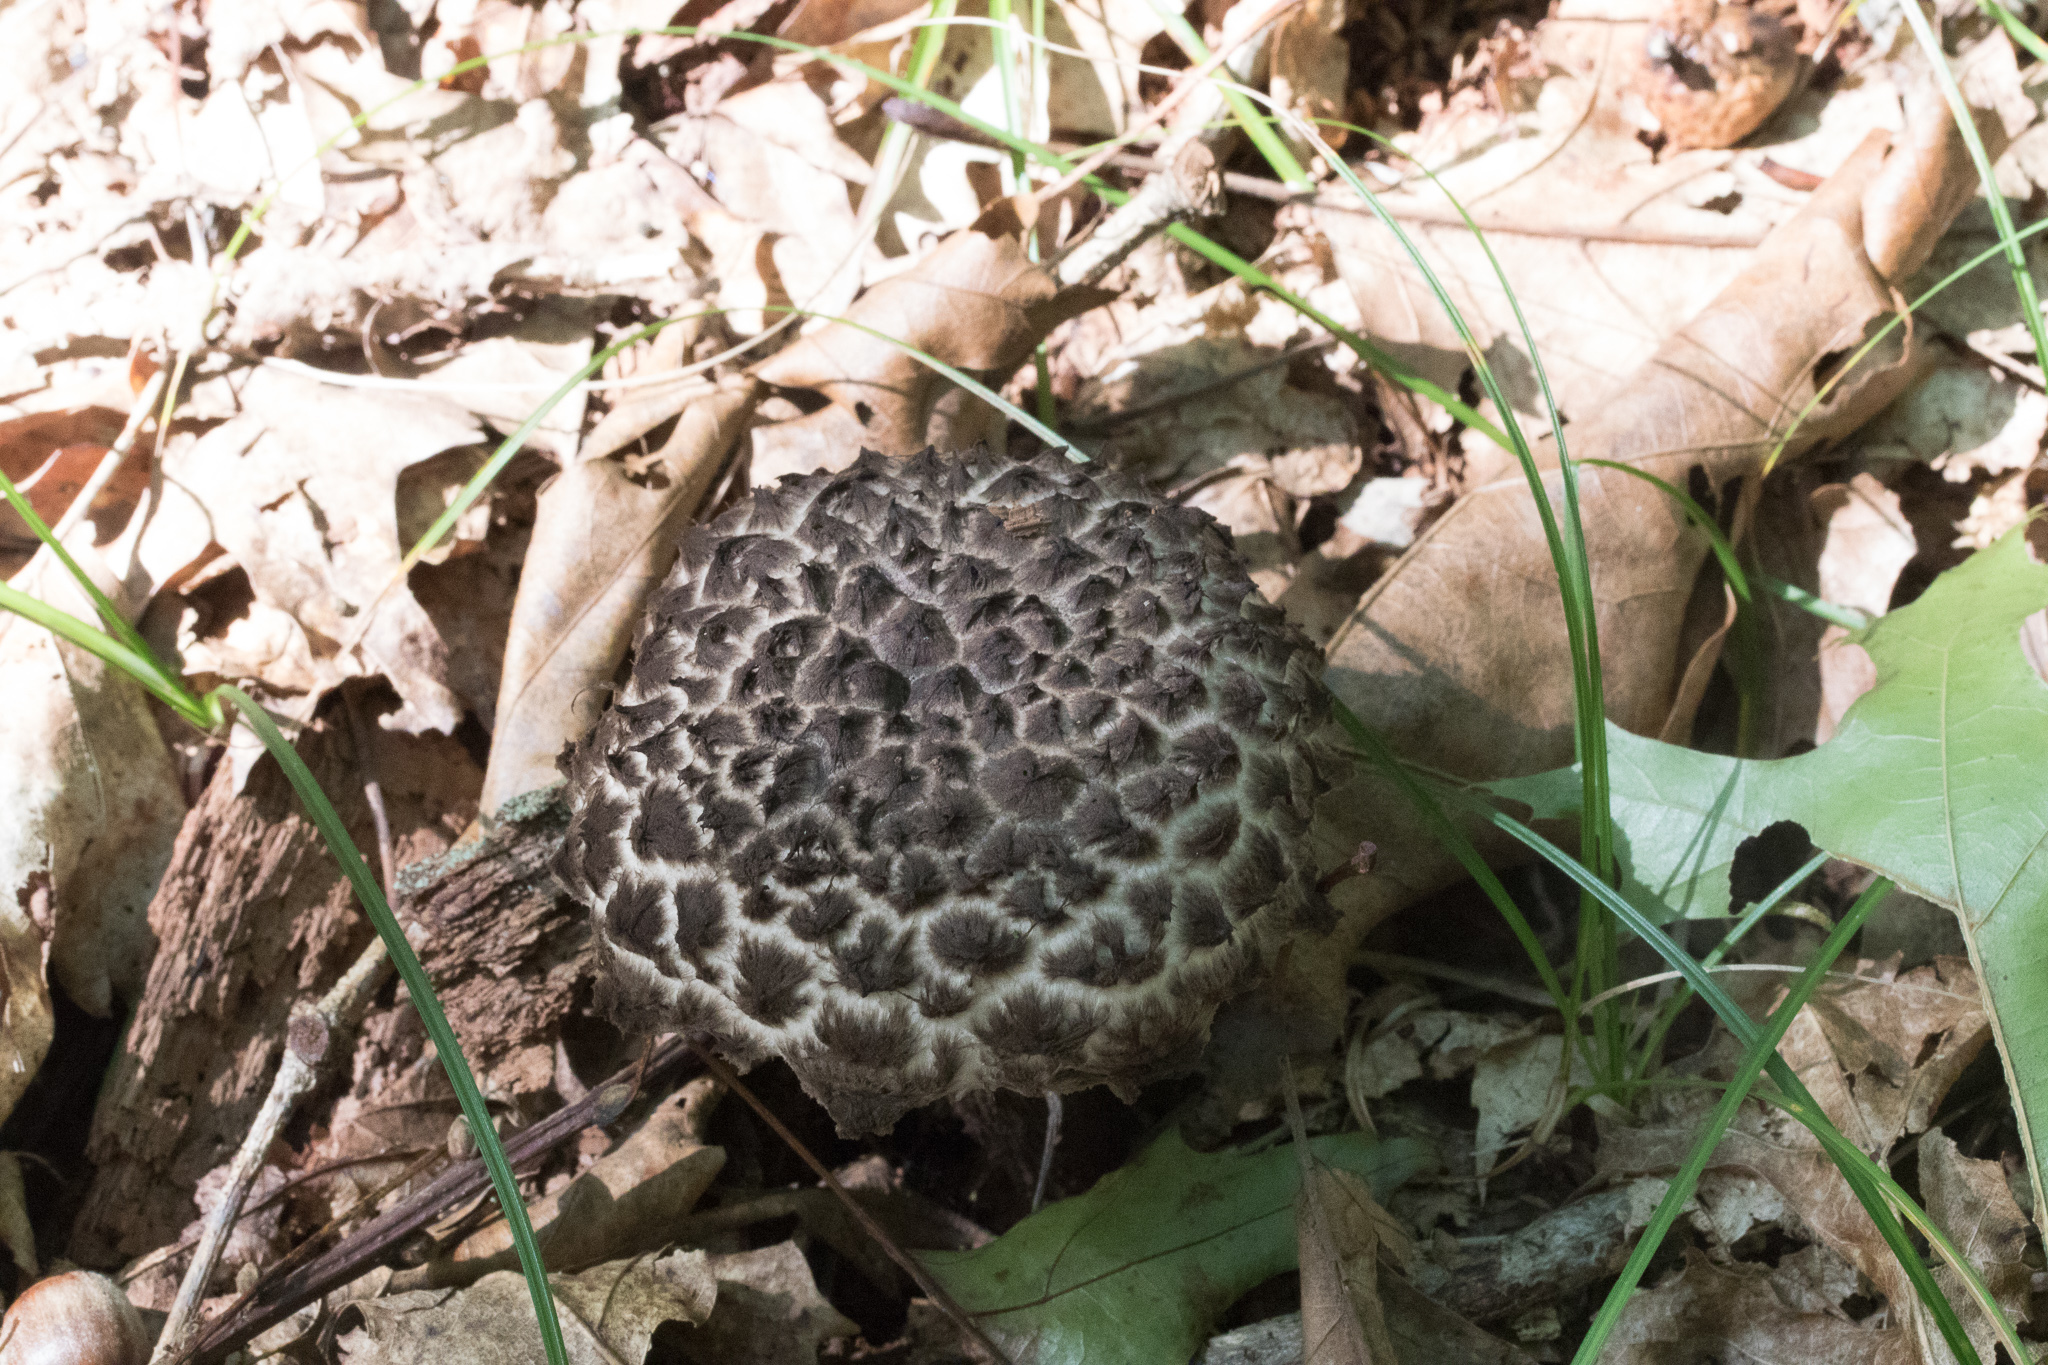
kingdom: Fungi
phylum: Basidiomycota
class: Agaricomycetes
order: Boletales
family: Boletaceae
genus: Strobilomyces
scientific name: Strobilomyces confusus
